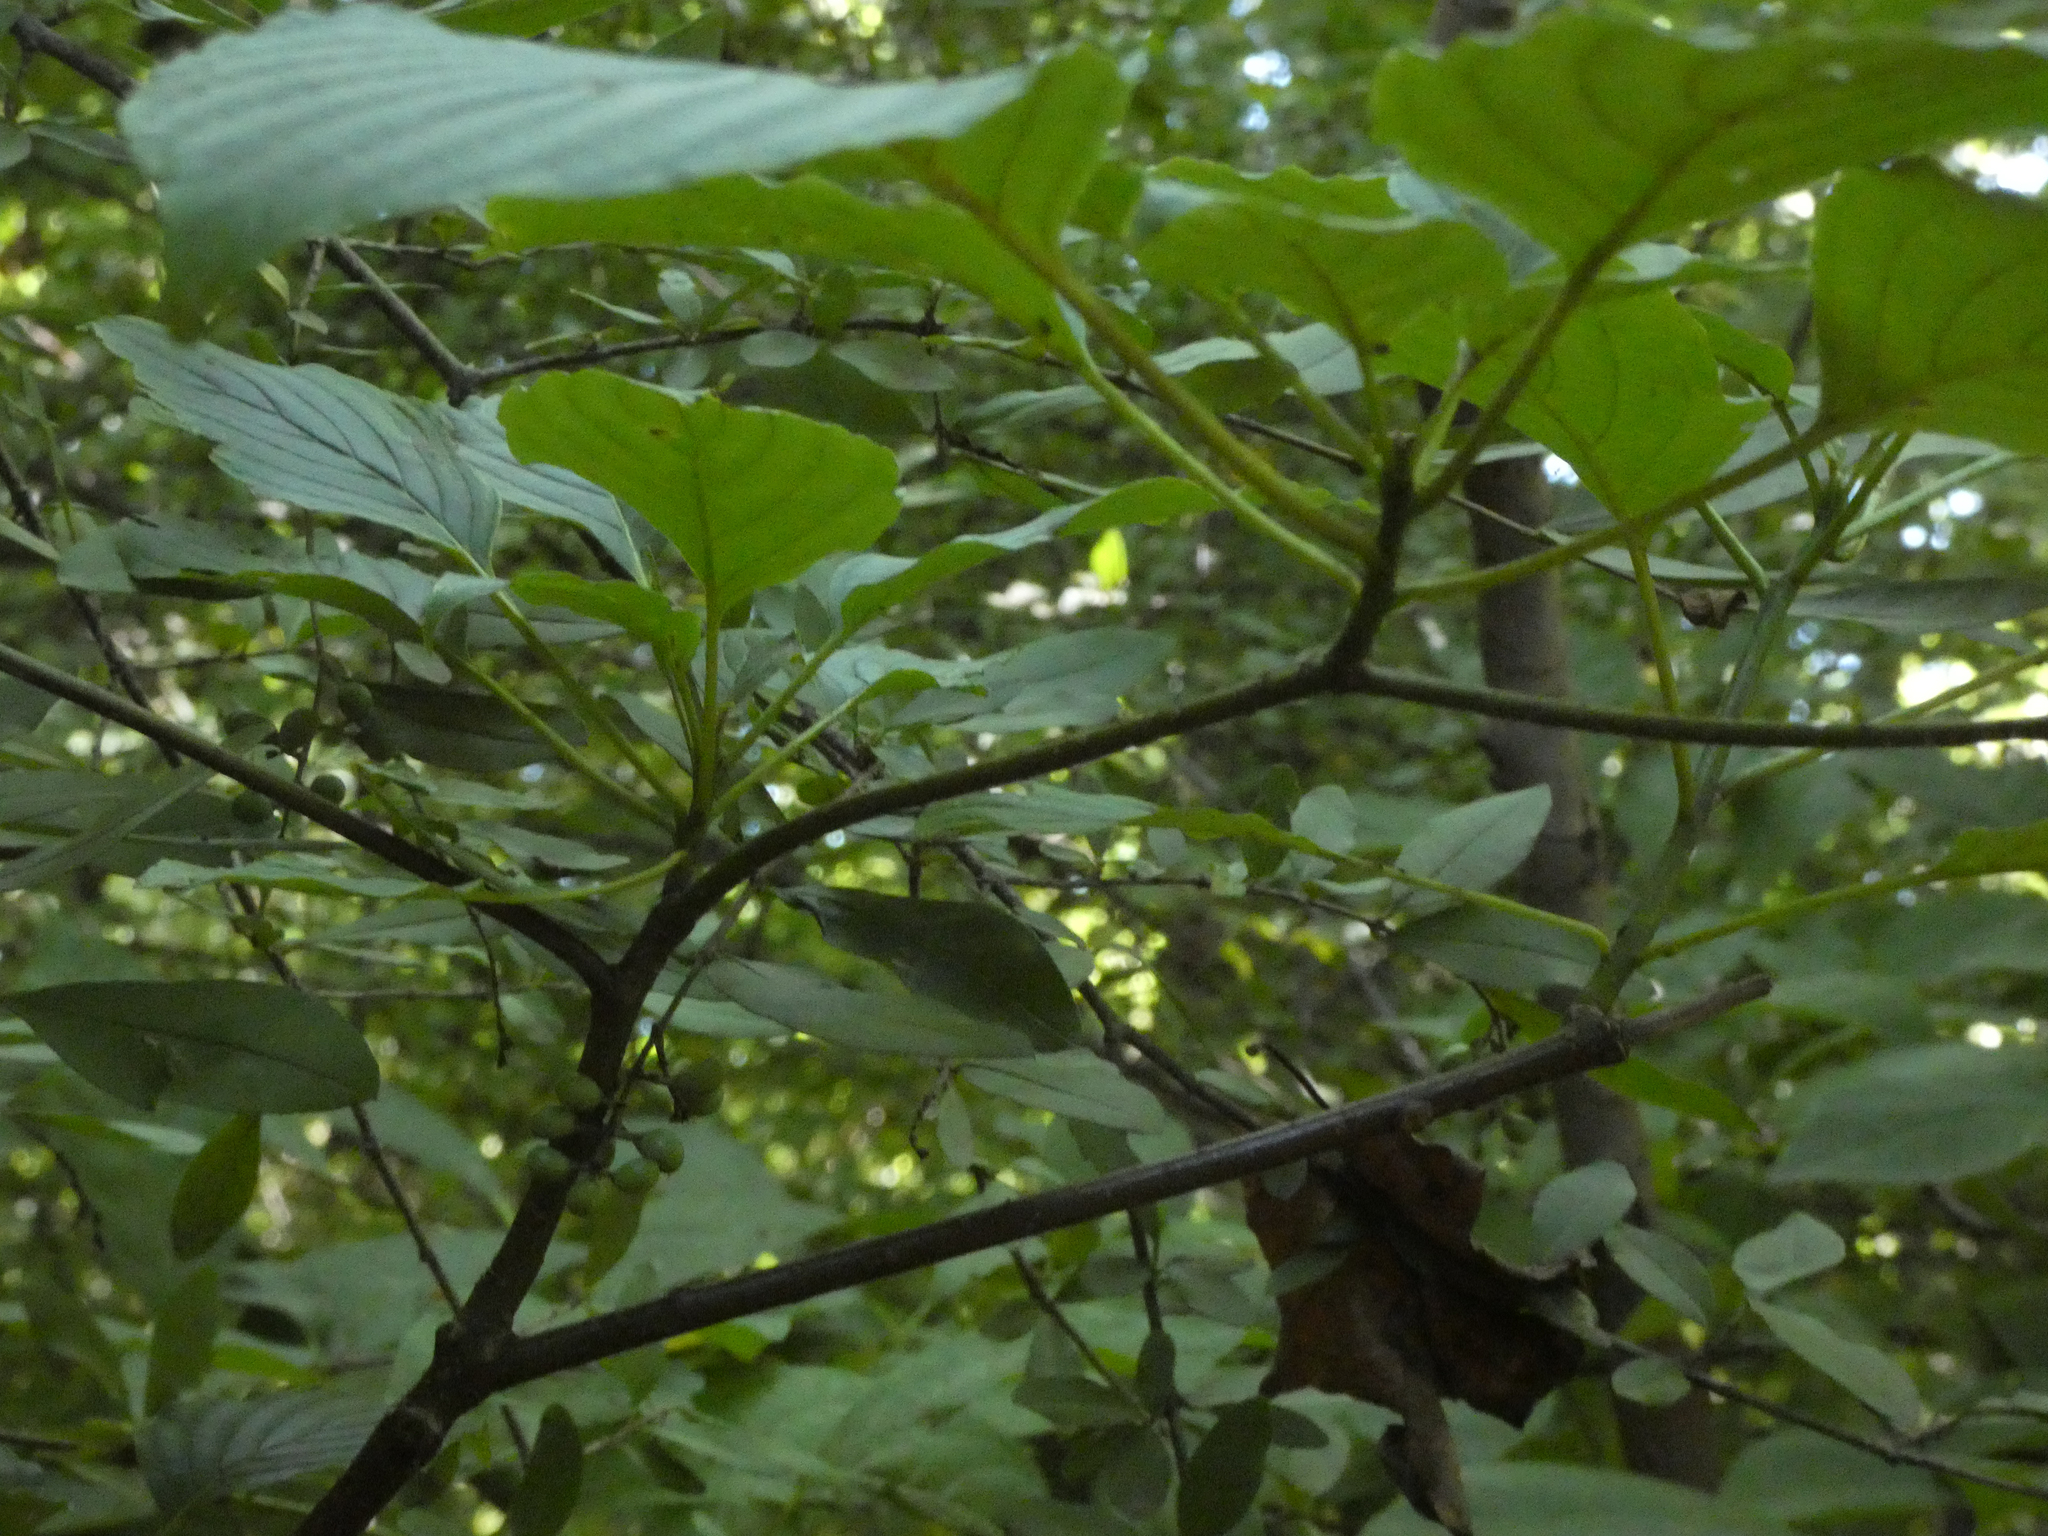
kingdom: Plantae
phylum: Tracheophyta
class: Magnoliopsida
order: Cornales
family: Cornaceae
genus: Cornus
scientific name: Cornus alternifolia
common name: Pagoda dogwood
